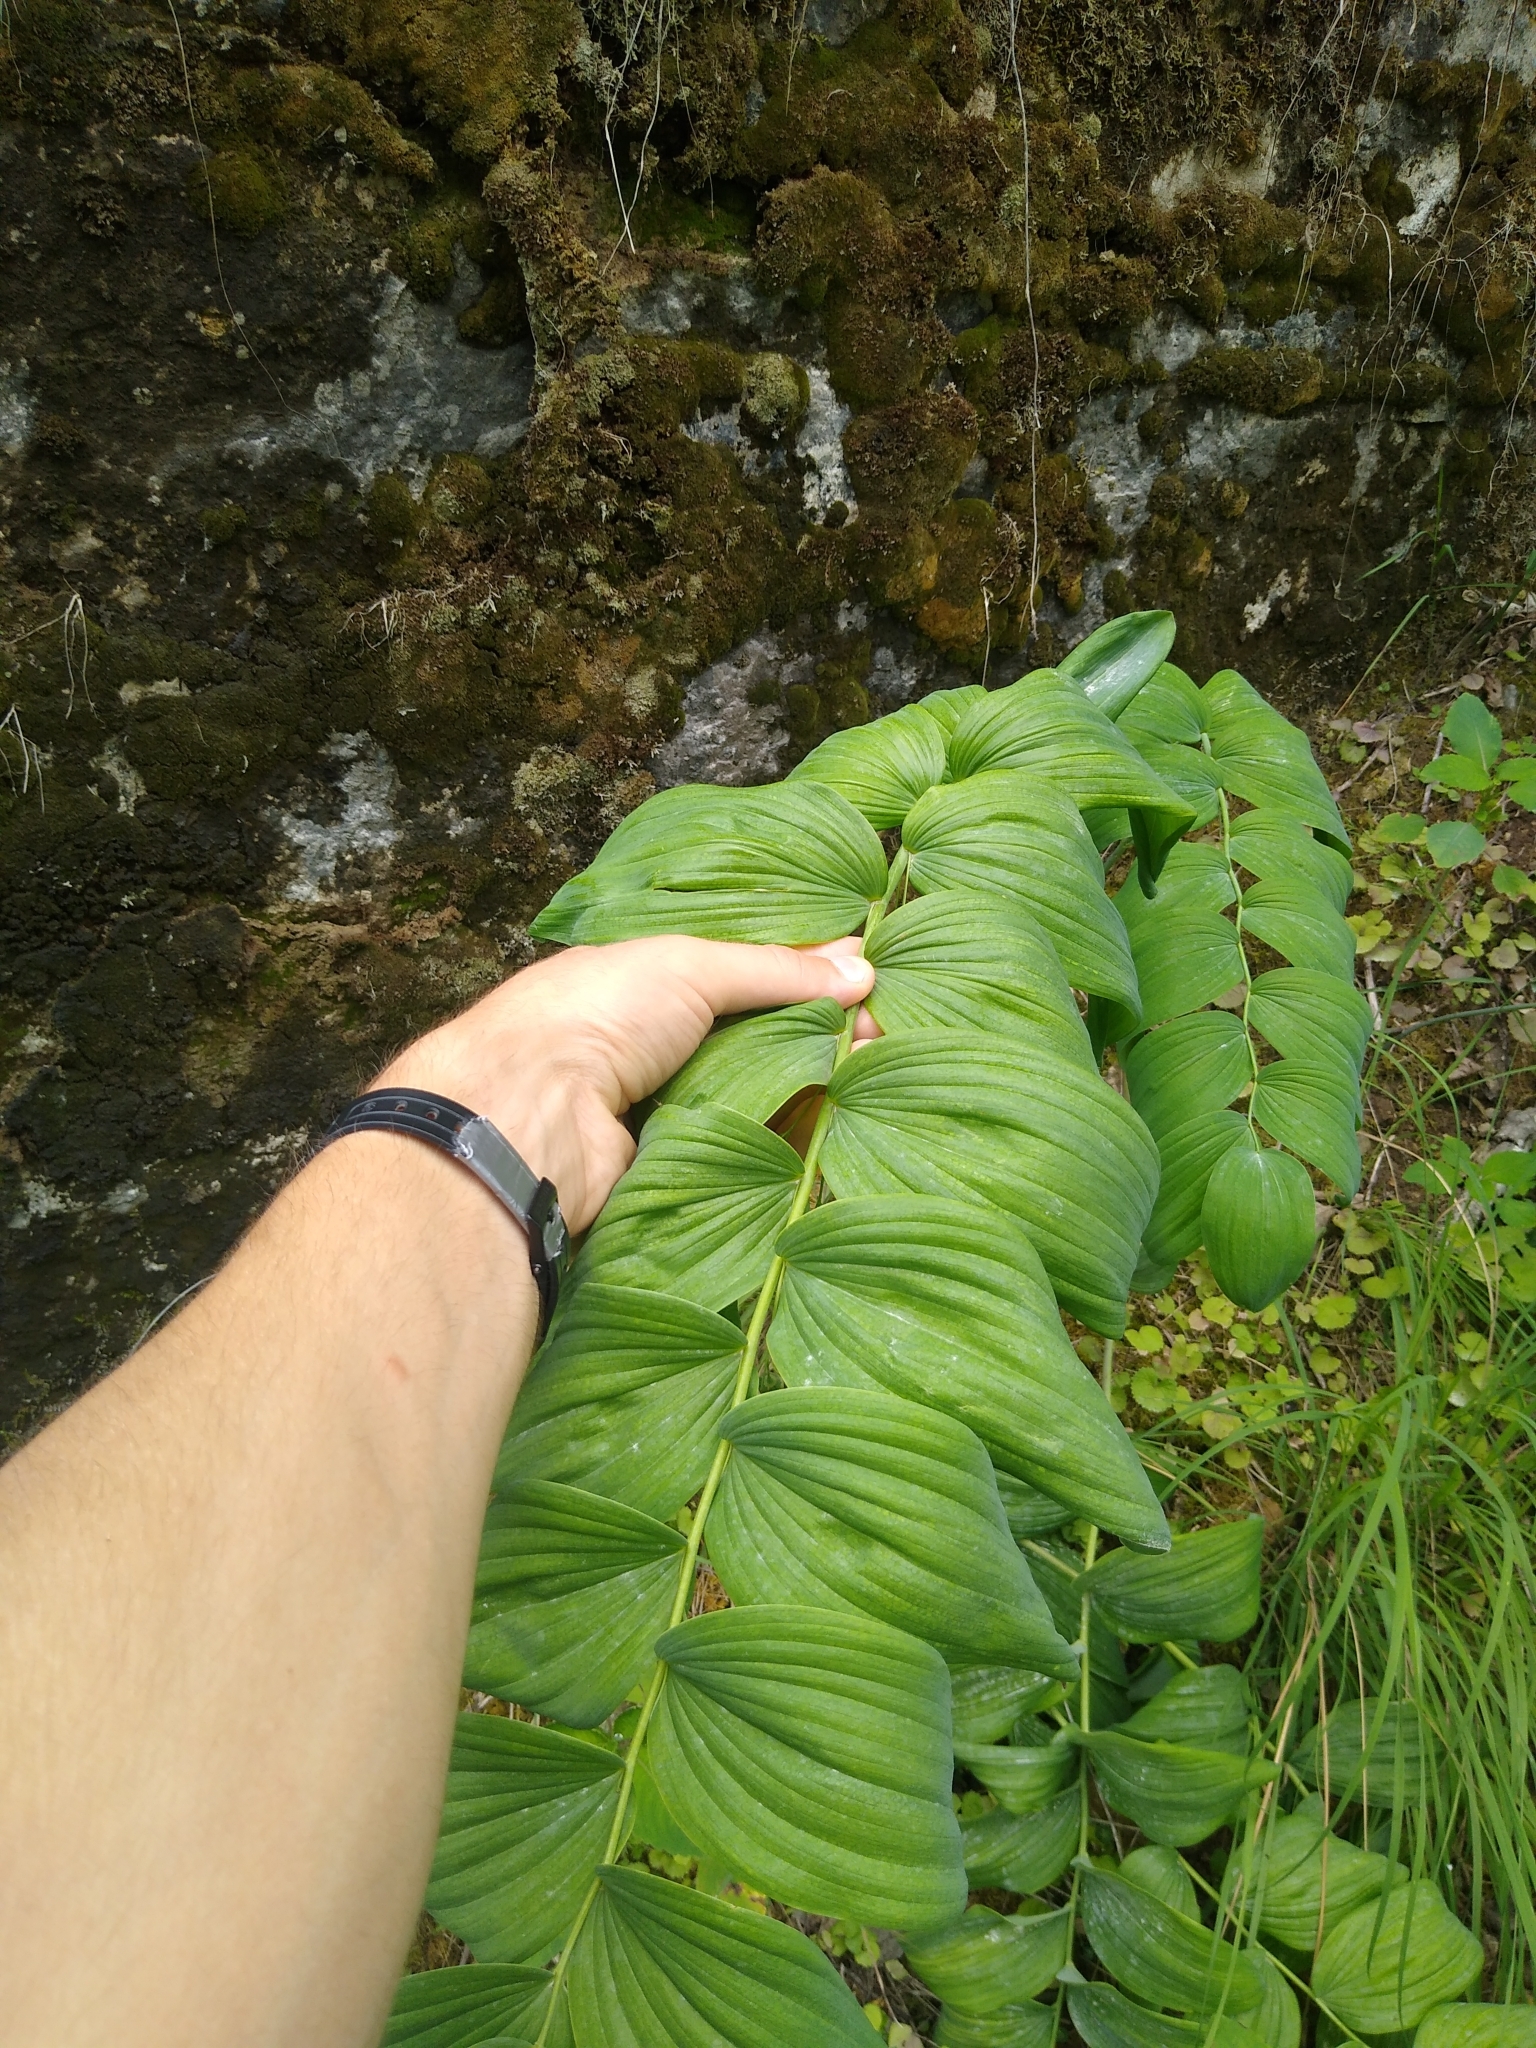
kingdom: Plantae
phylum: Tracheophyta
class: Liliopsida
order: Asparagales
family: Asparagaceae
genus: Polygonatum
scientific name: Polygonatum biflorum
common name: American solomon's-seal
